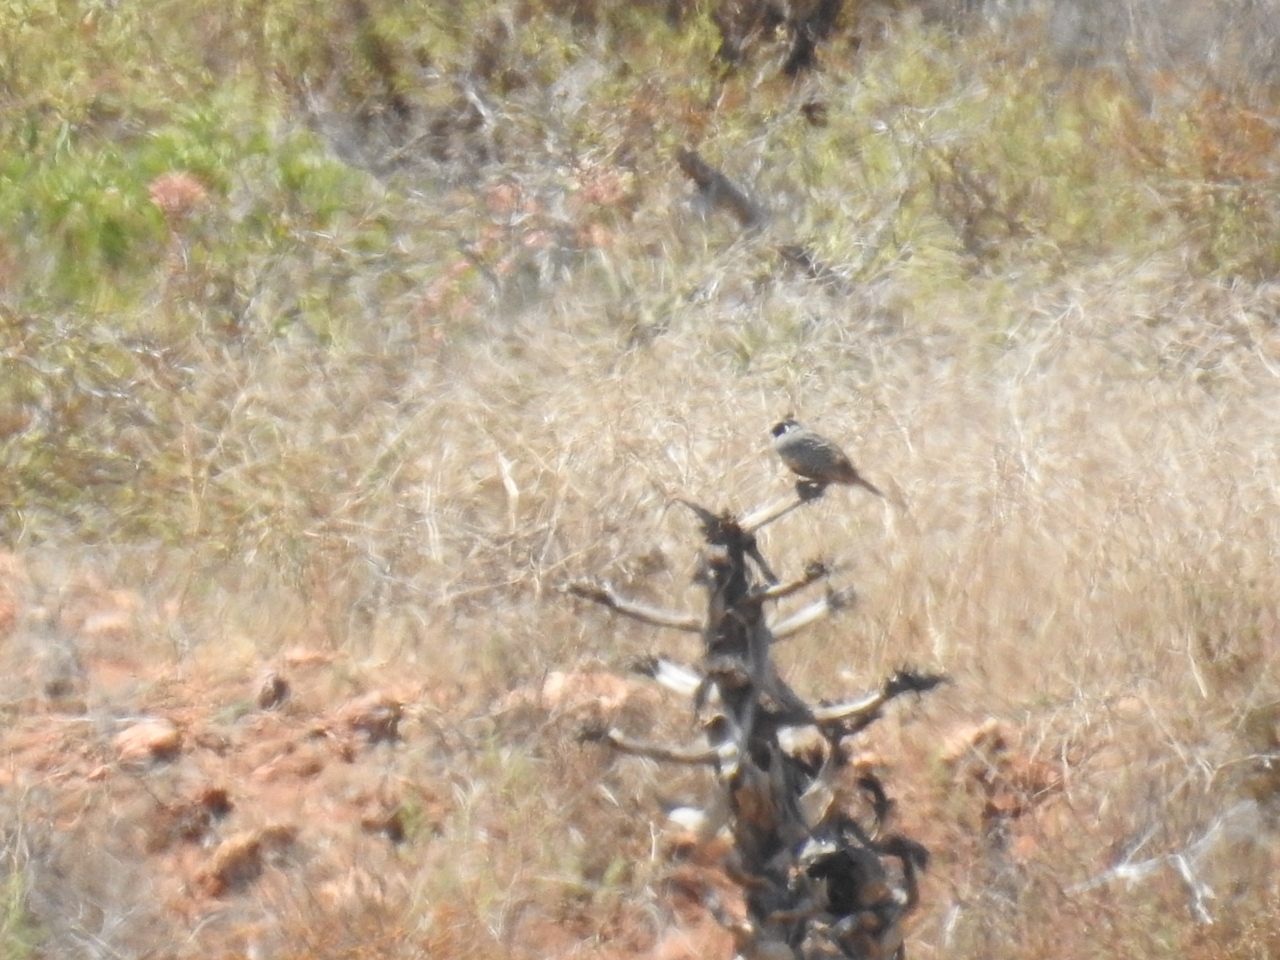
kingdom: Animalia
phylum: Chordata
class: Aves
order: Galliformes
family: Odontophoridae
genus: Callipepla
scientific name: Callipepla californica
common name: California quail
